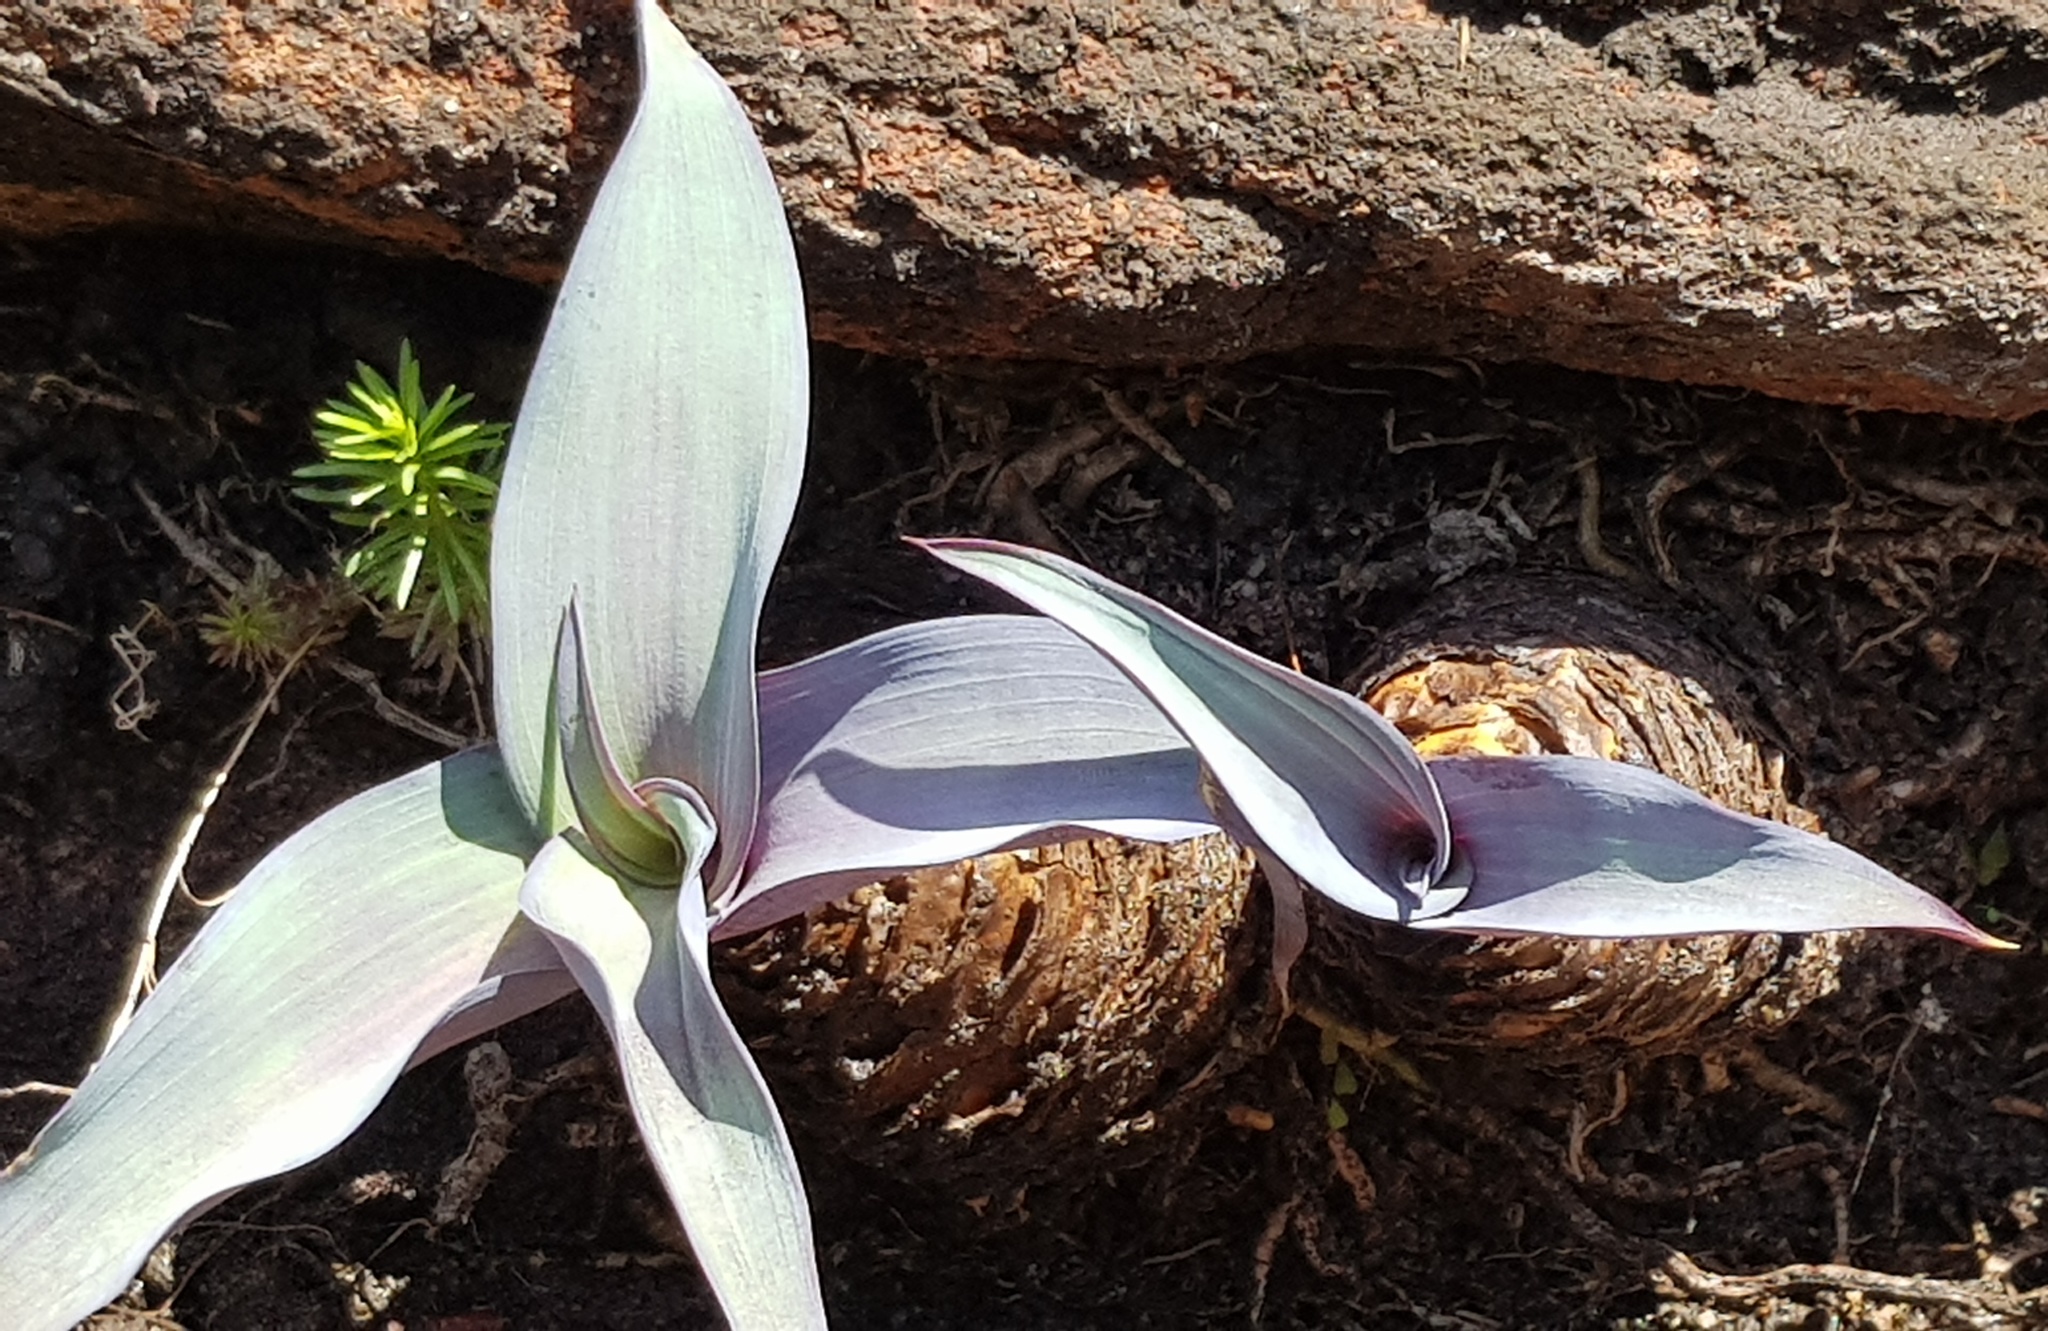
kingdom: Plantae
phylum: Tracheophyta
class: Liliopsida
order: Asparagales
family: Asparagaceae
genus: Merwilla
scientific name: Merwilla plumbea
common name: Blue-squill
